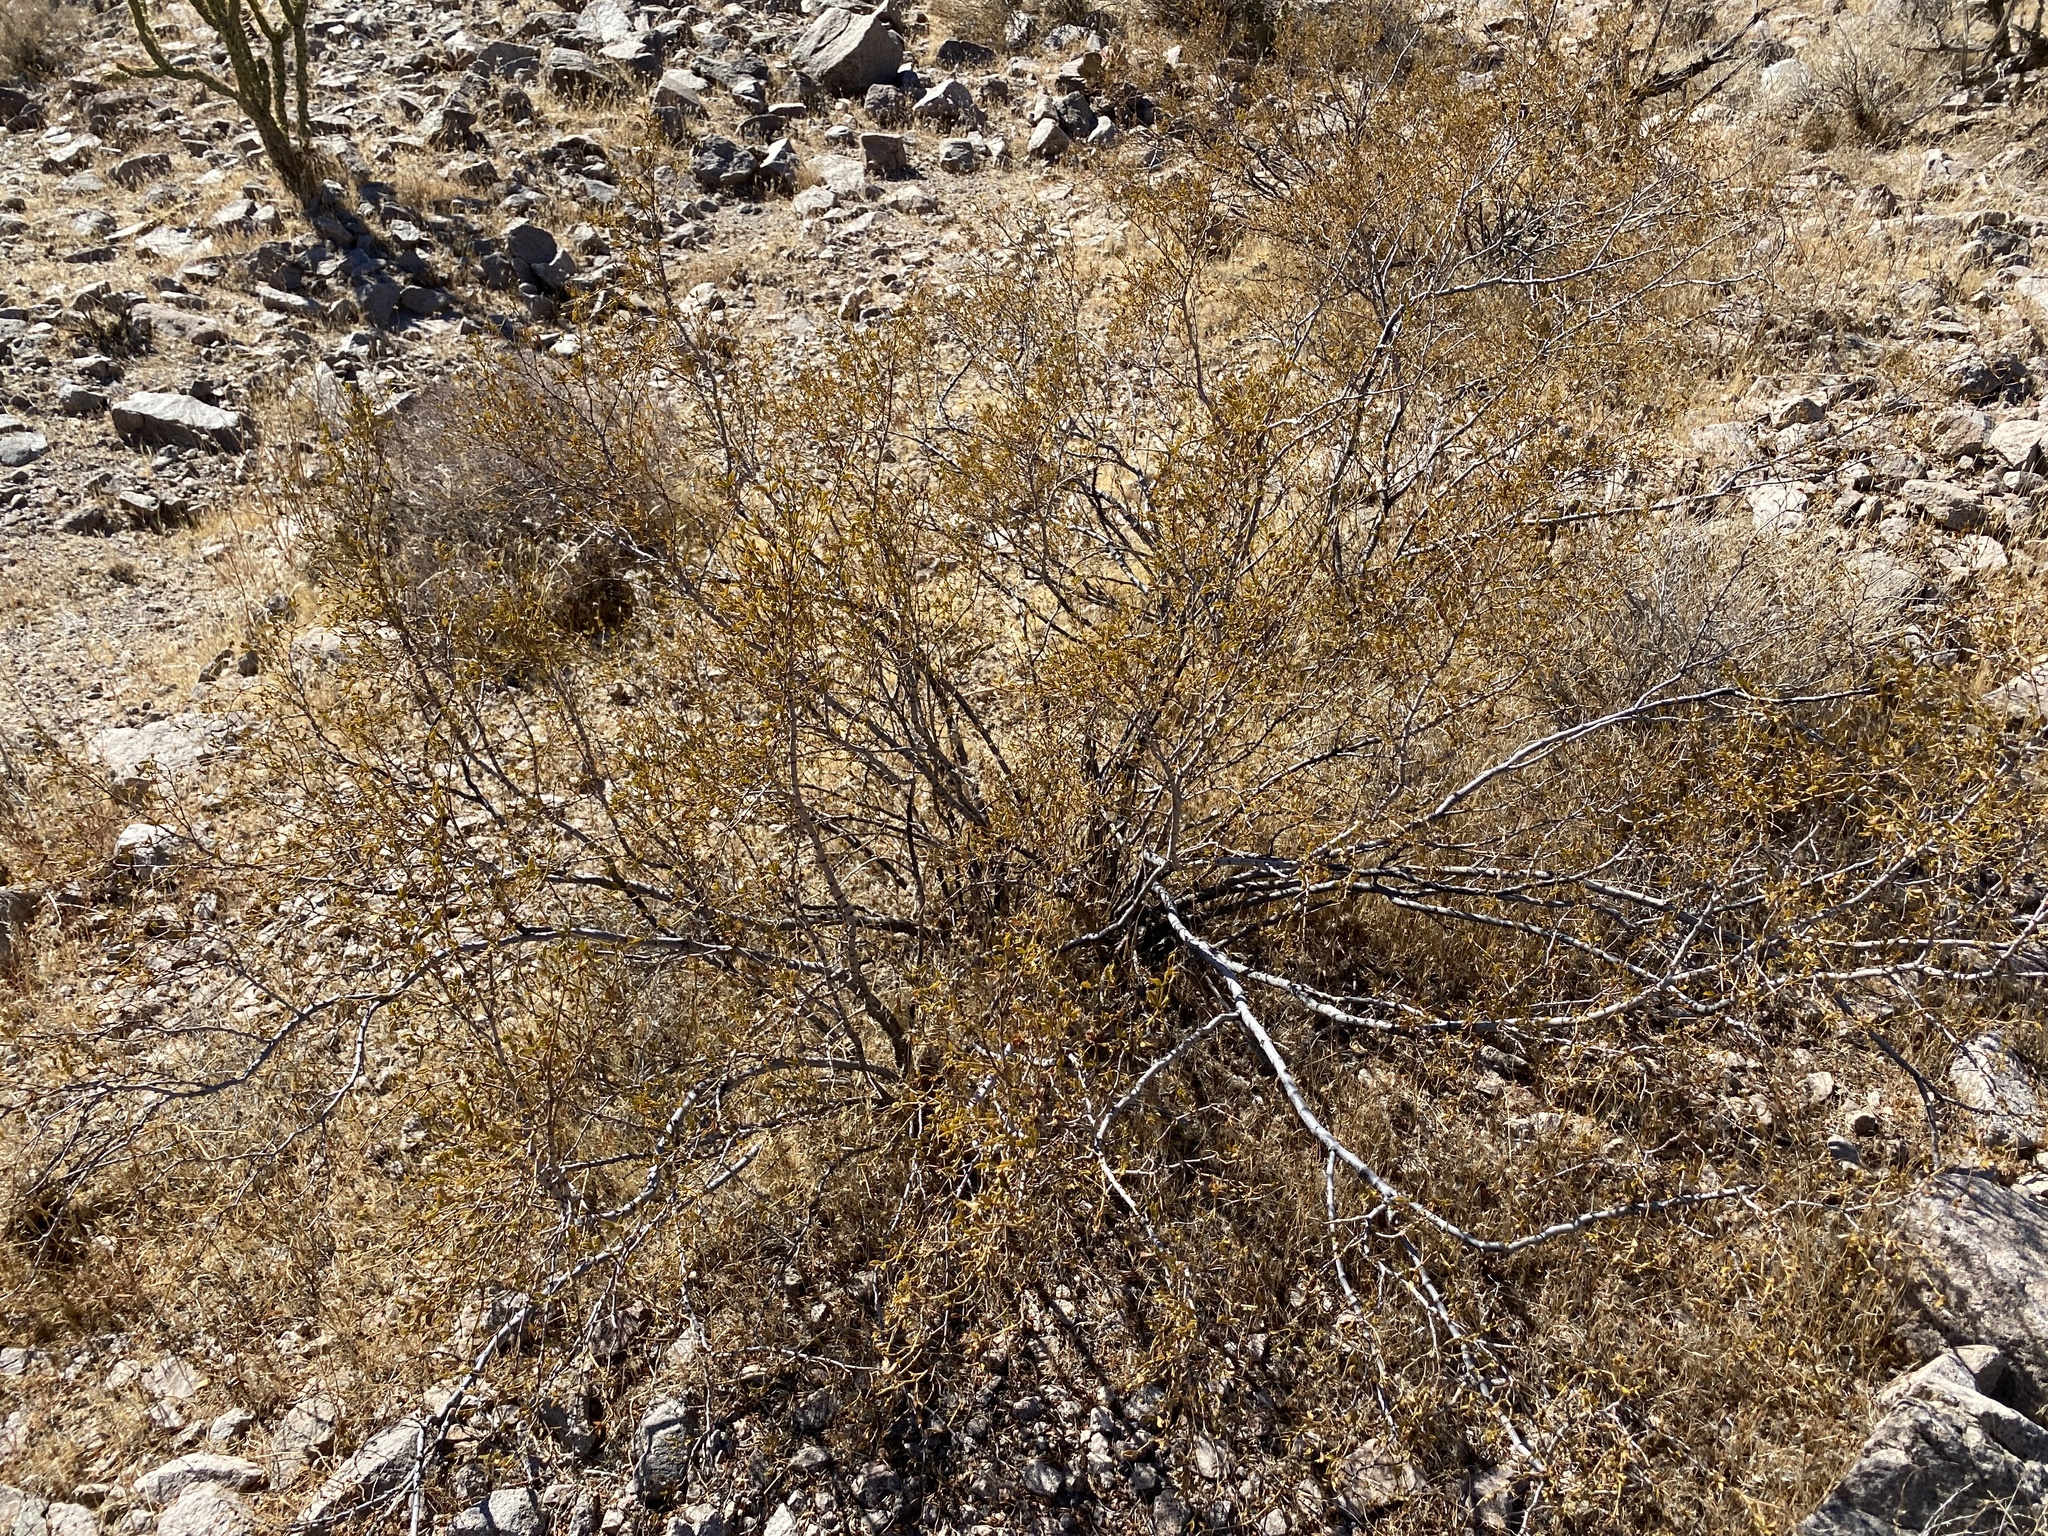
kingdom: Plantae
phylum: Tracheophyta
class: Magnoliopsida
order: Zygophyllales
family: Zygophyllaceae
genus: Larrea
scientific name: Larrea tridentata
